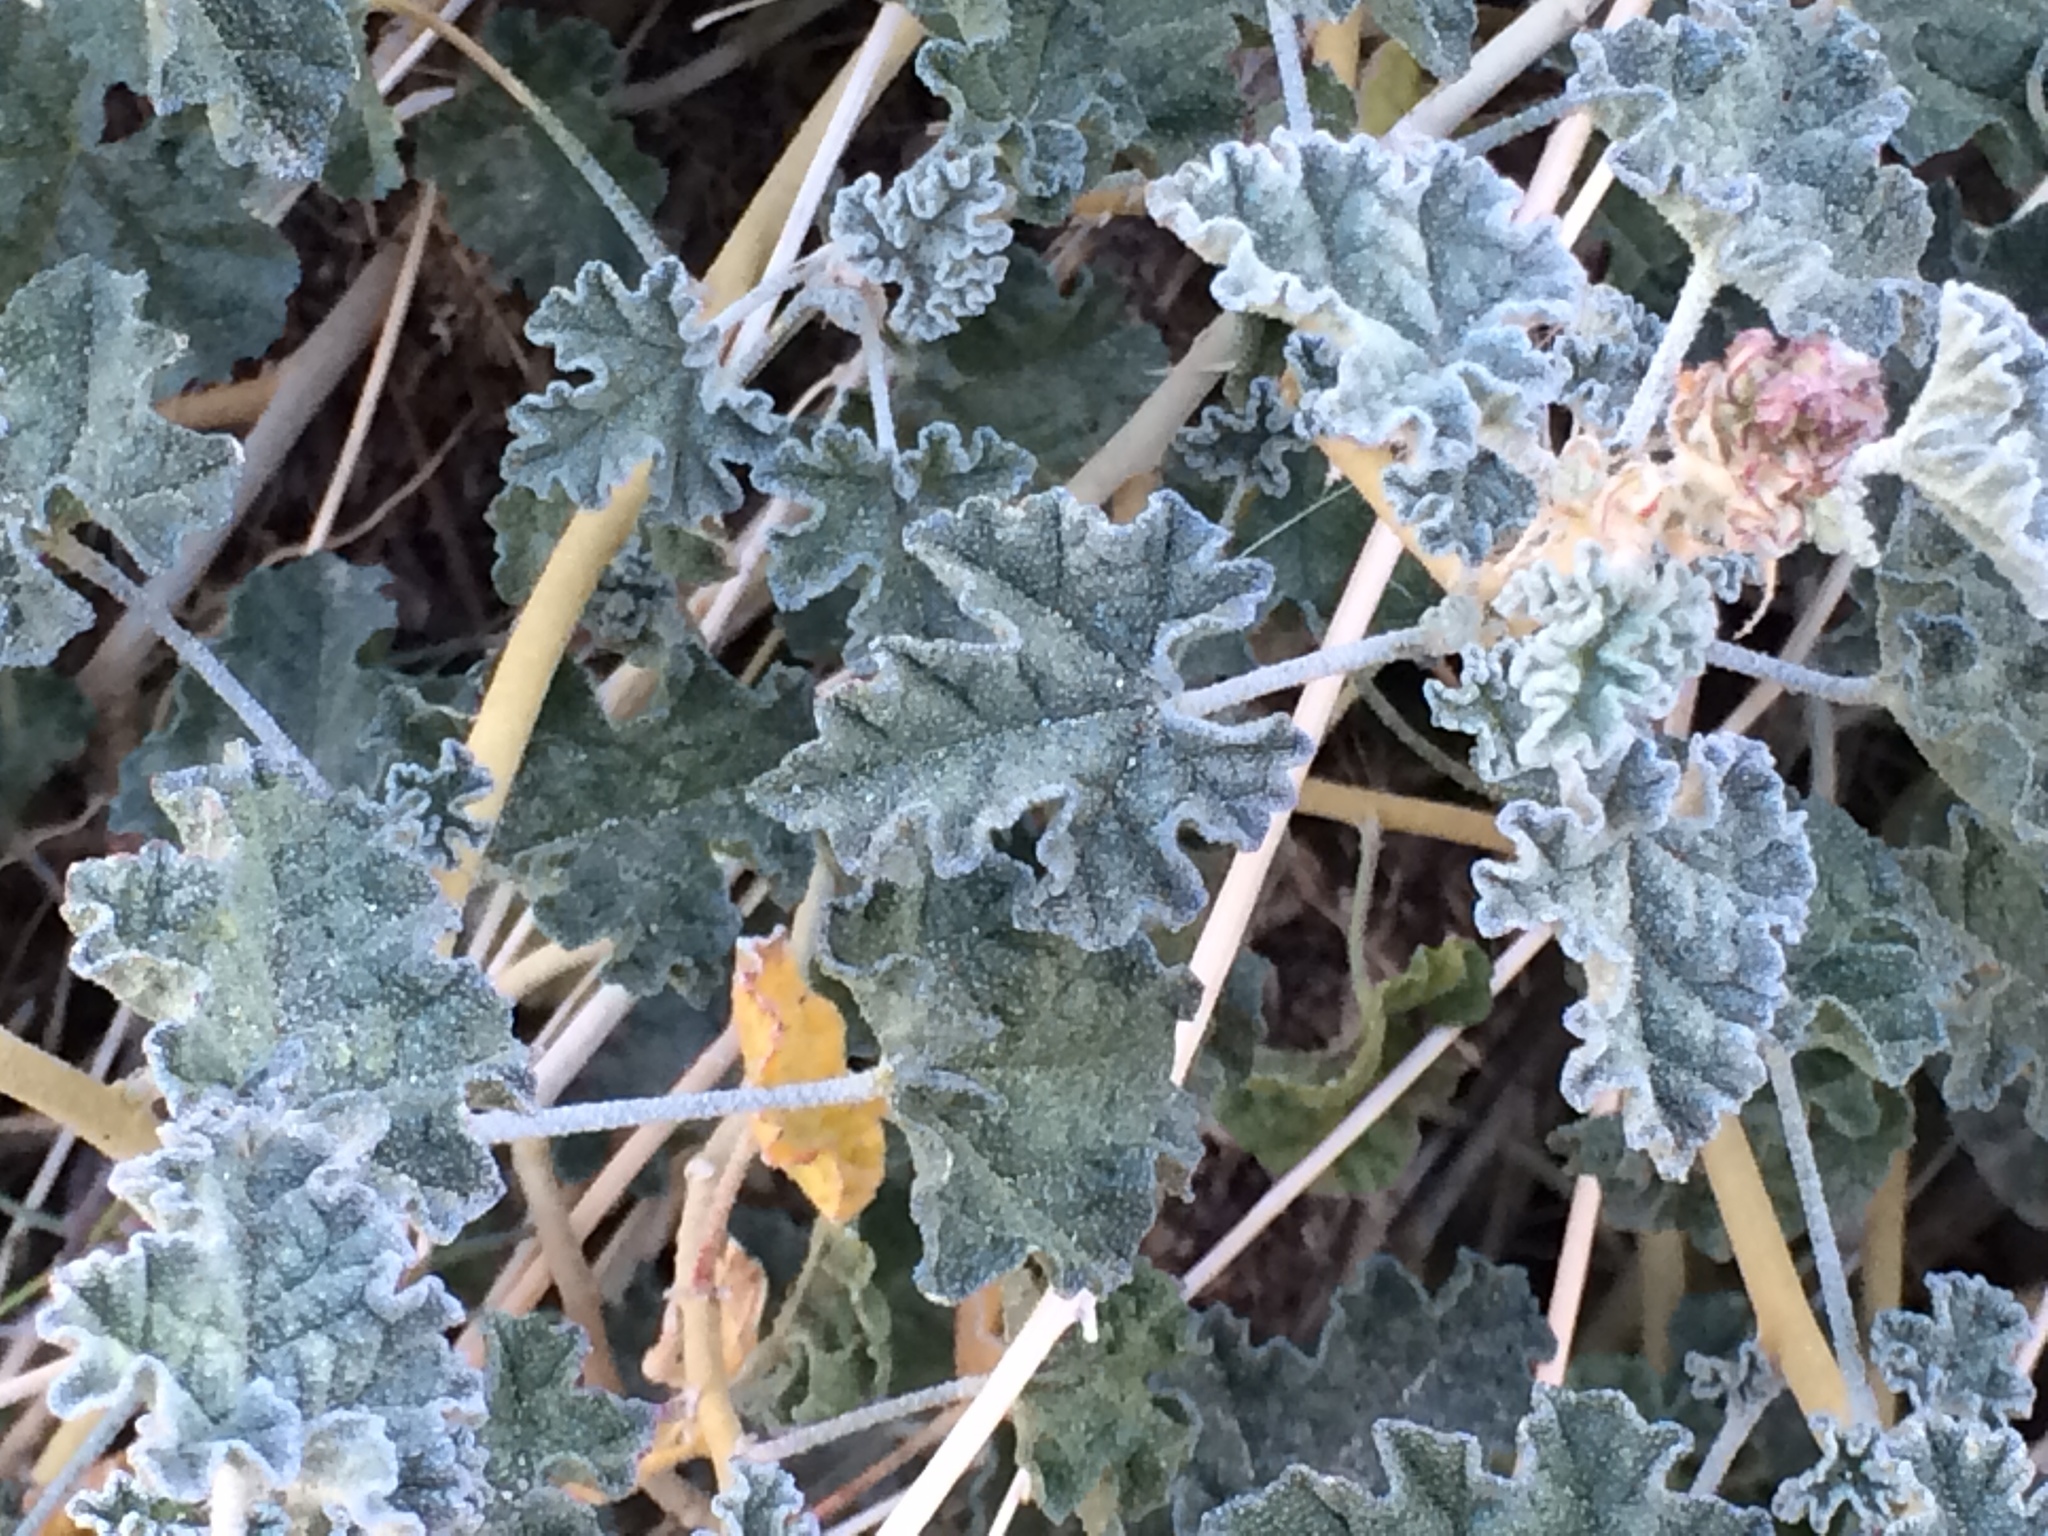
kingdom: Plantae
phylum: Tracheophyta
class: Magnoliopsida
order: Malvales
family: Malvaceae
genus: Sphaeralcea
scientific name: Sphaeralcea ambigua
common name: Apricot globe-mallow
